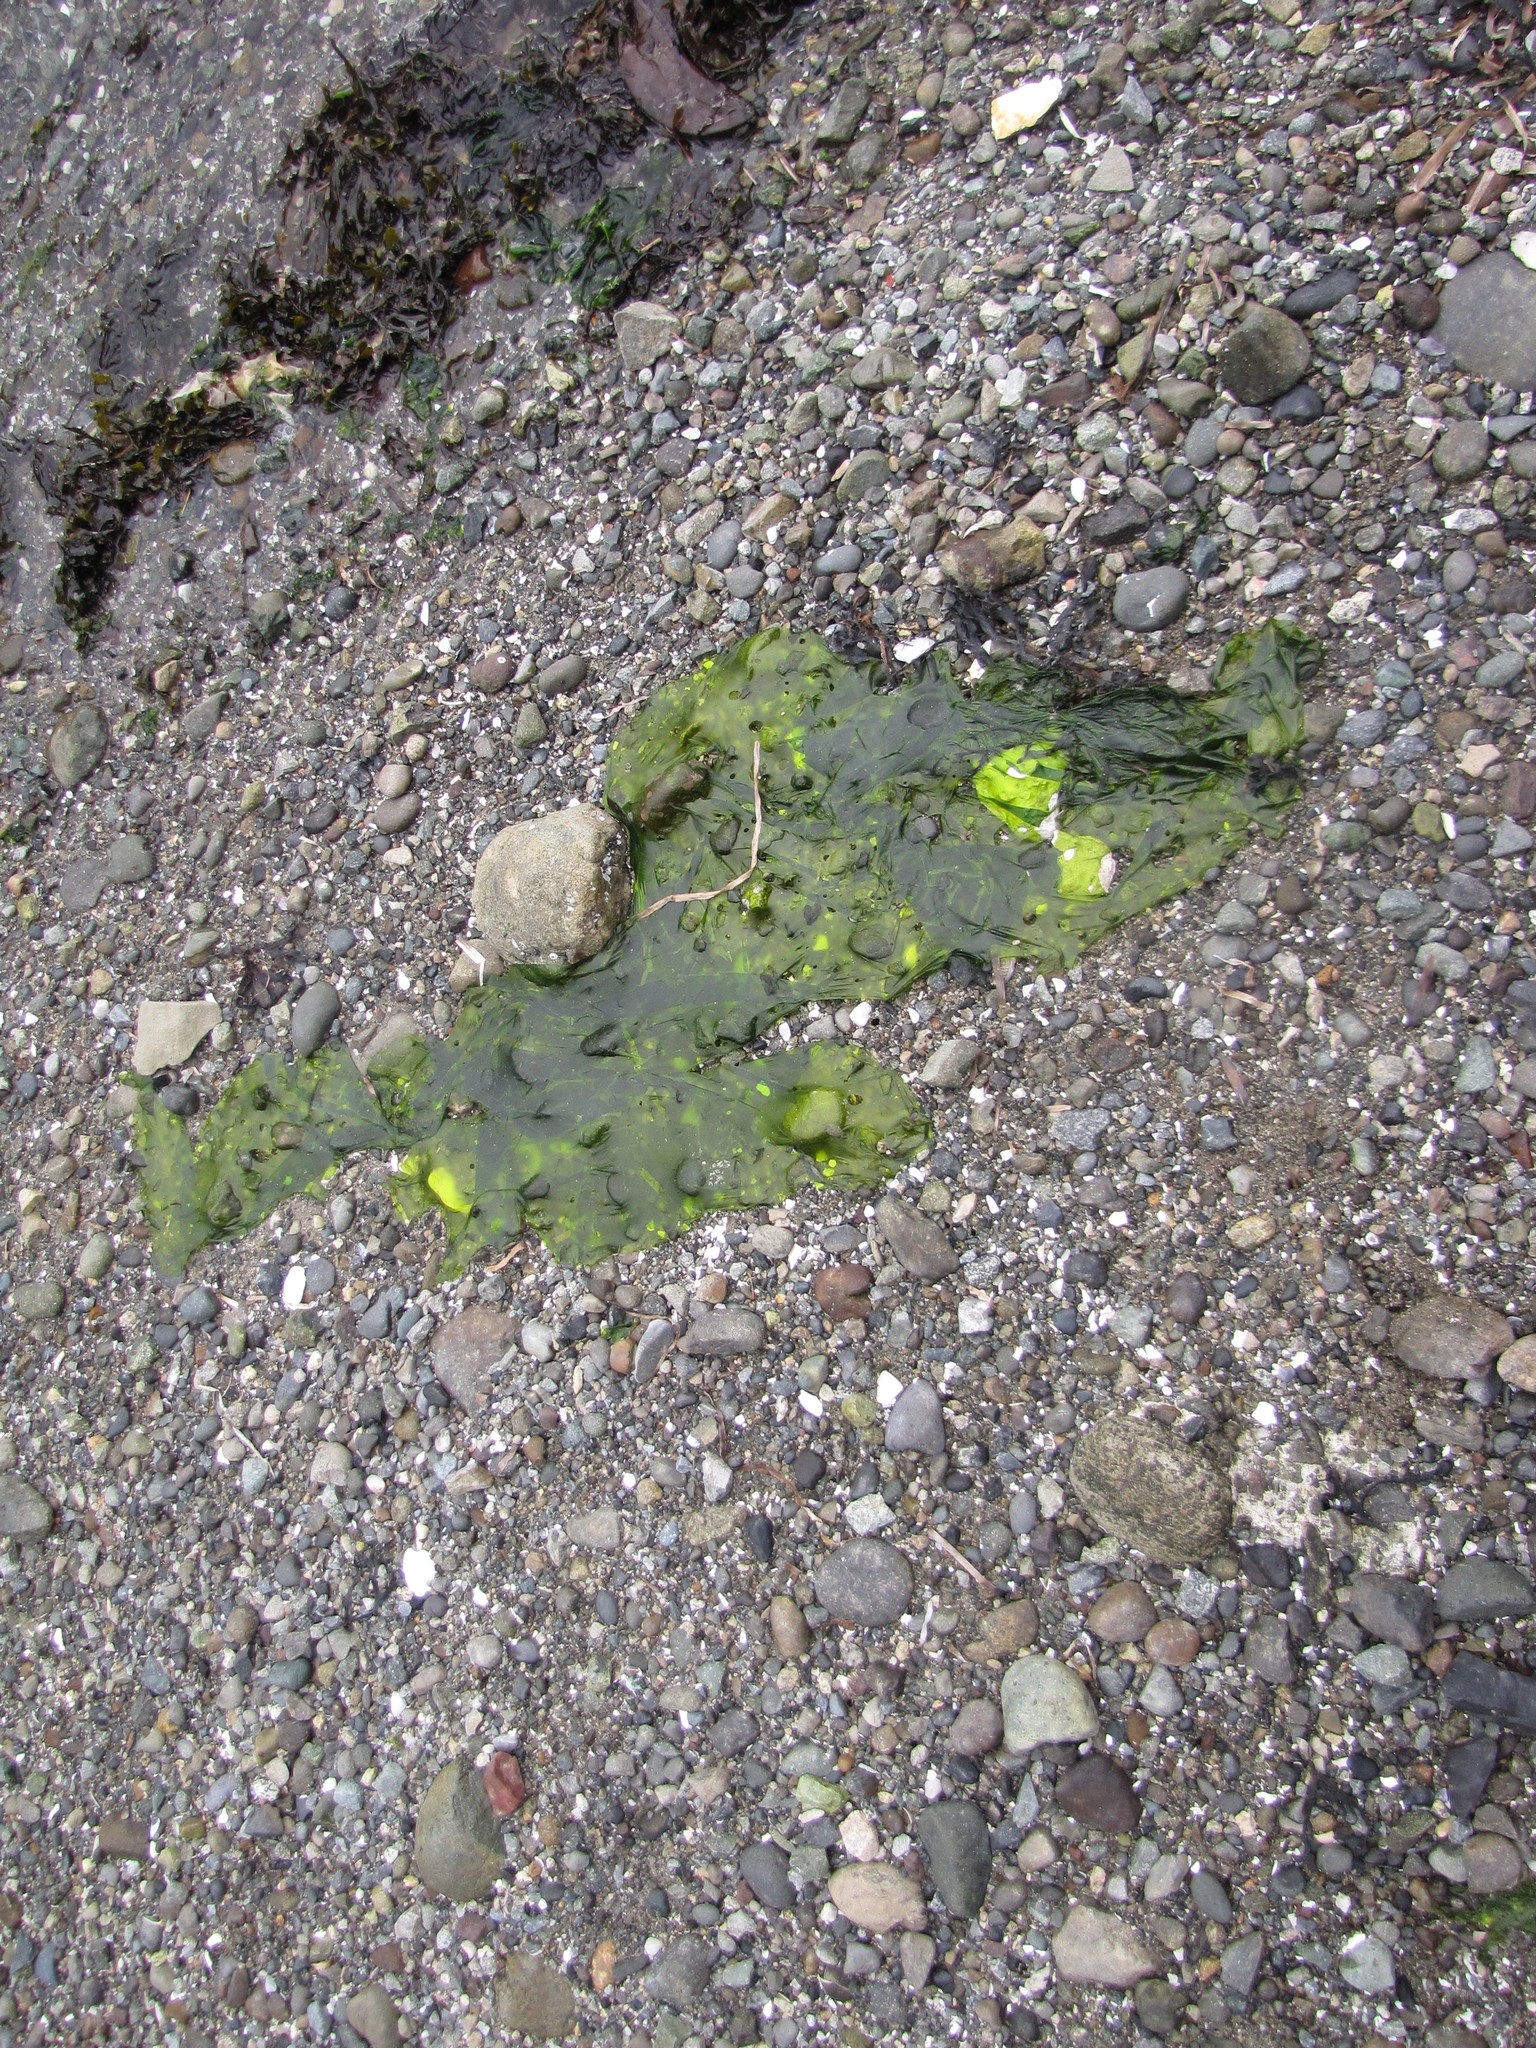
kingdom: Plantae
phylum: Chlorophyta
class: Ulvophyceae
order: Ulvales
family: Ulvaceae
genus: Ulva
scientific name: Ulva fenestrata
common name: Sea lettuce
